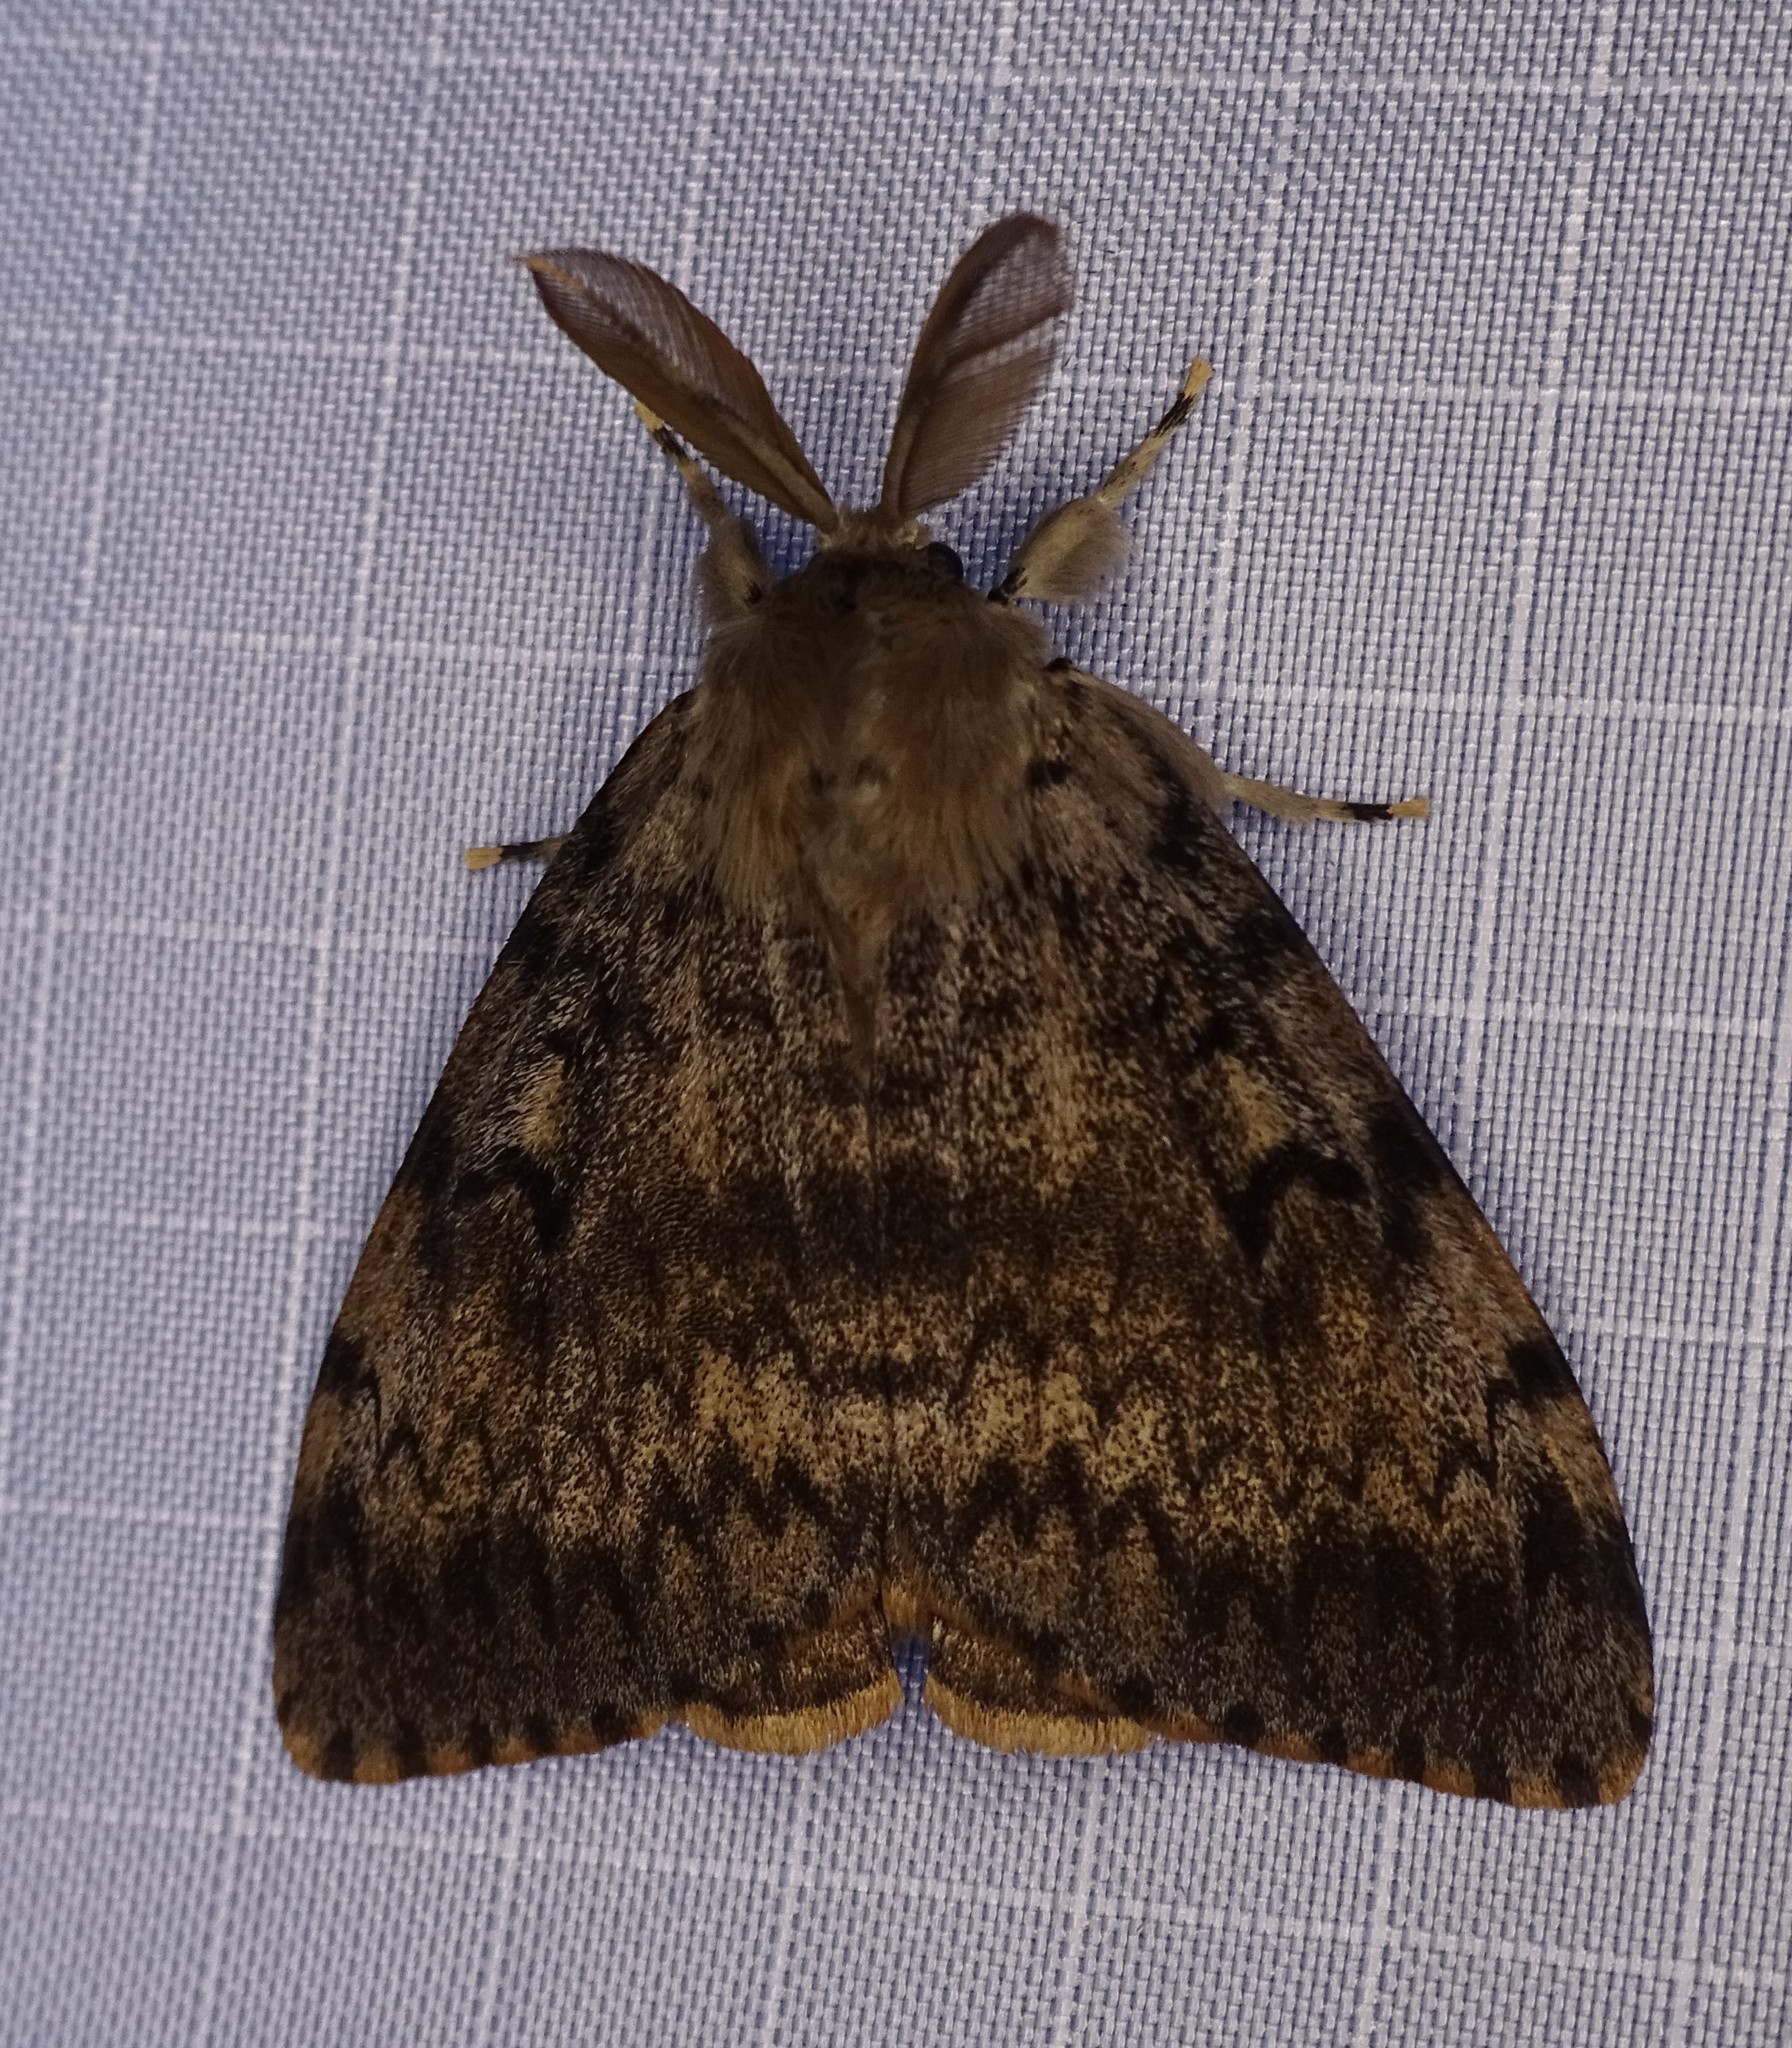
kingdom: Animalia
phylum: Arthropoda
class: Insecta
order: Lepidoptera
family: Erebidae
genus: Lymantria
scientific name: Lymantria dispar
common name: Gypsy moth
